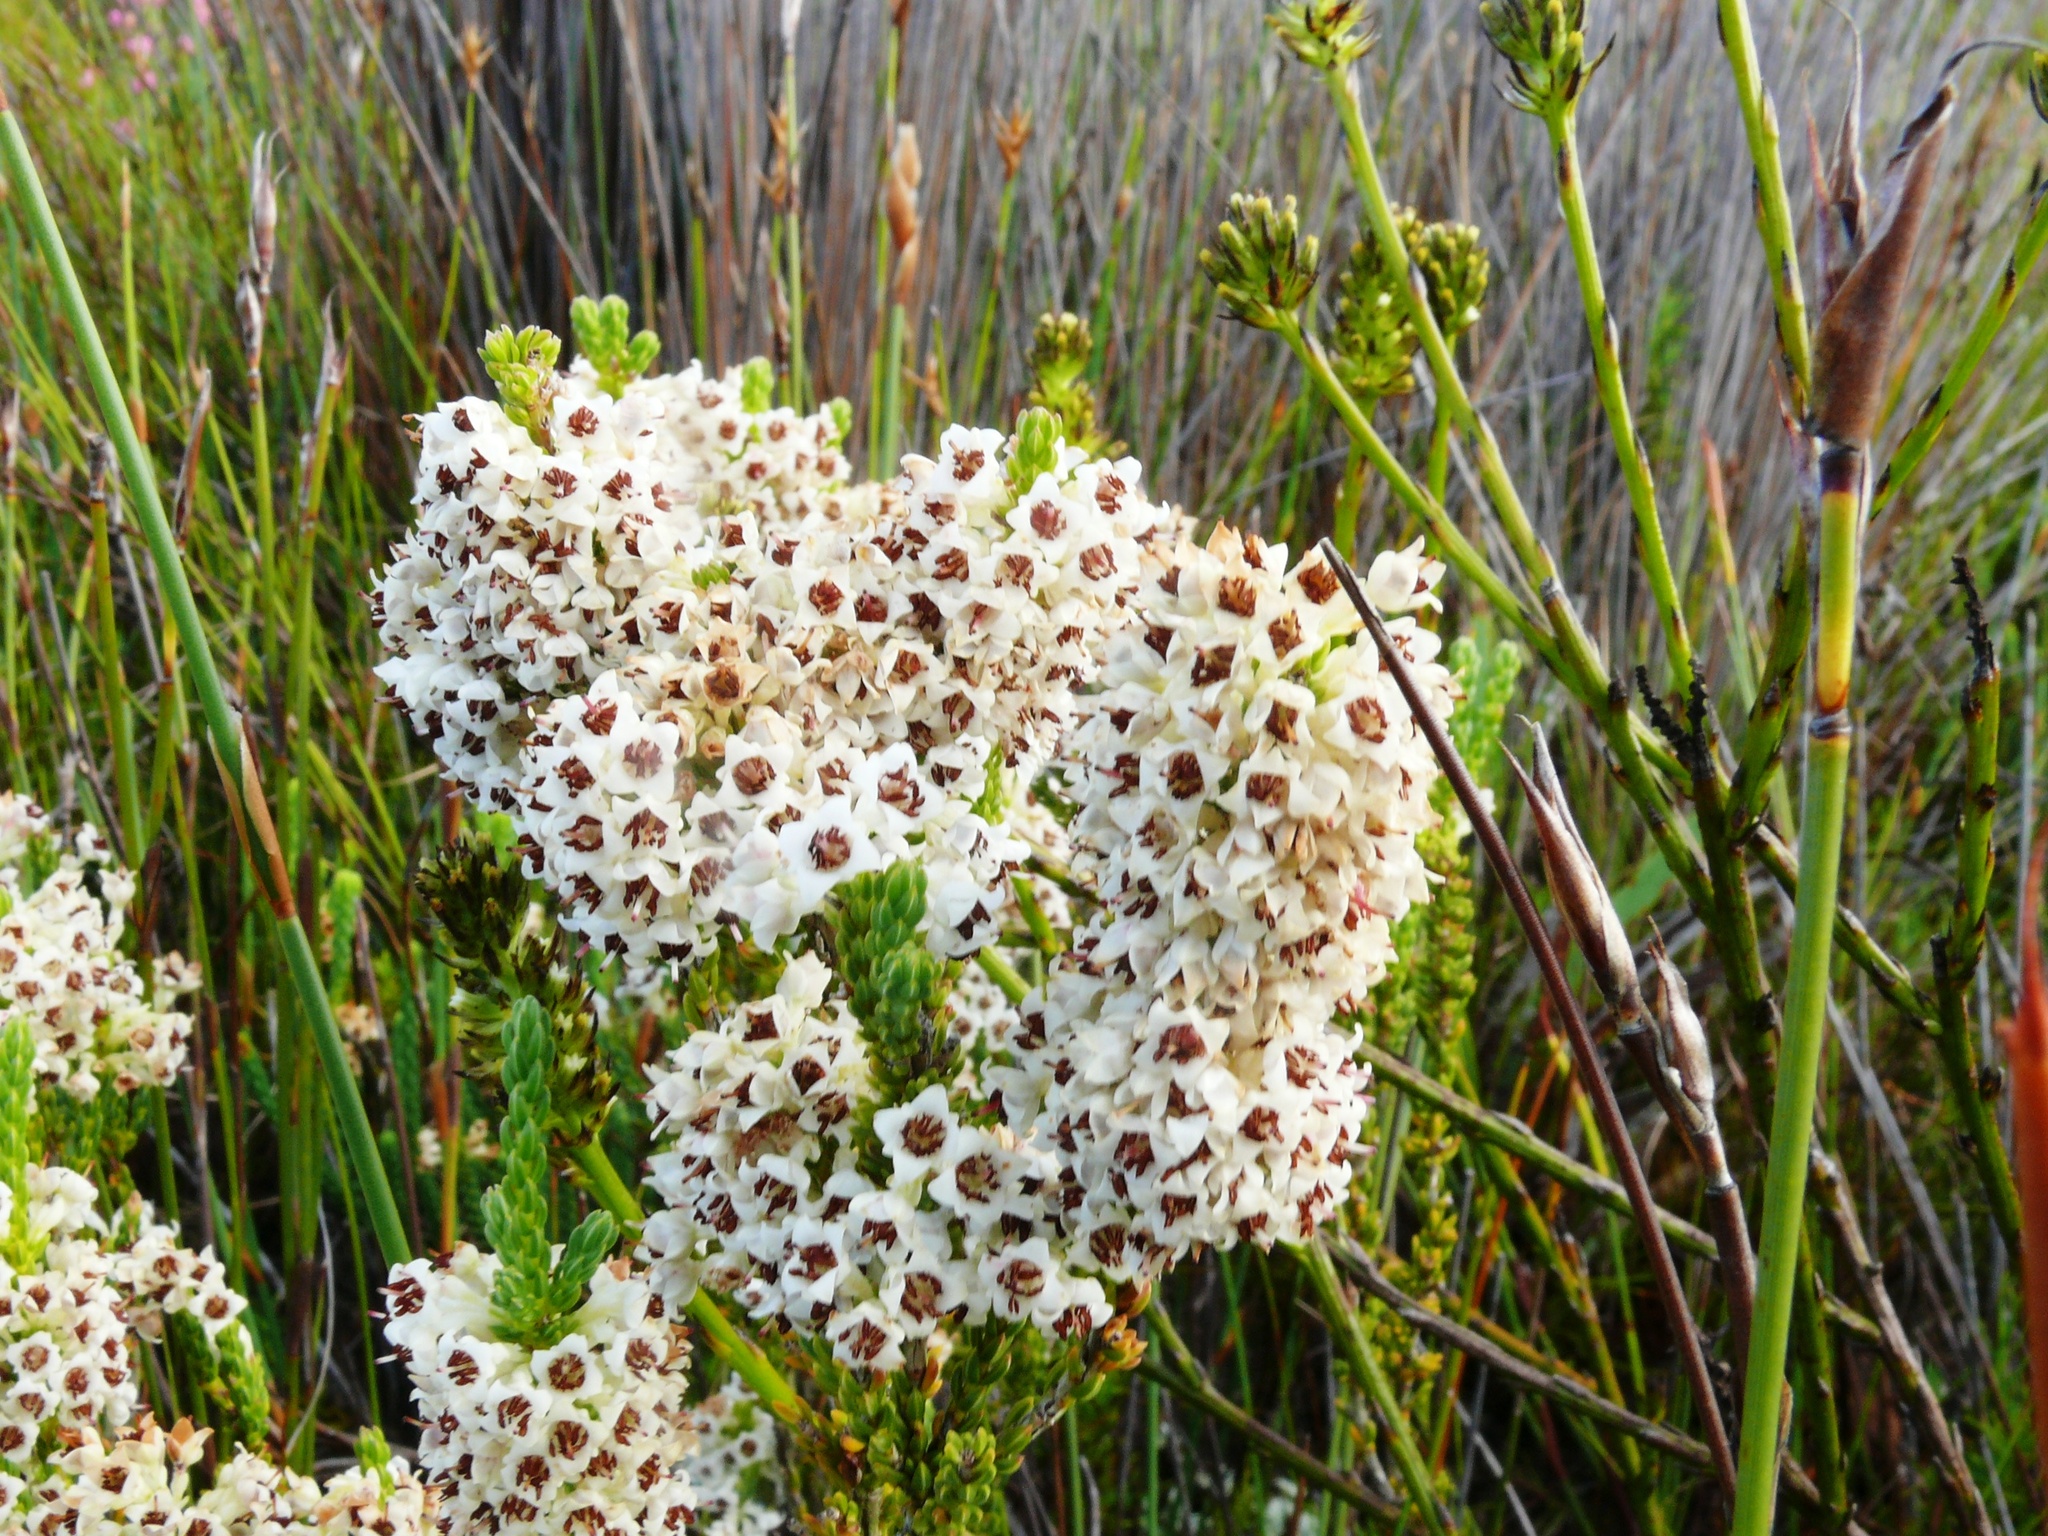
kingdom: Plantae
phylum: Tracheophyta
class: Magnoliopsida
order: Ericales
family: Ericaceae
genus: Erica
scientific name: Erica calycina
